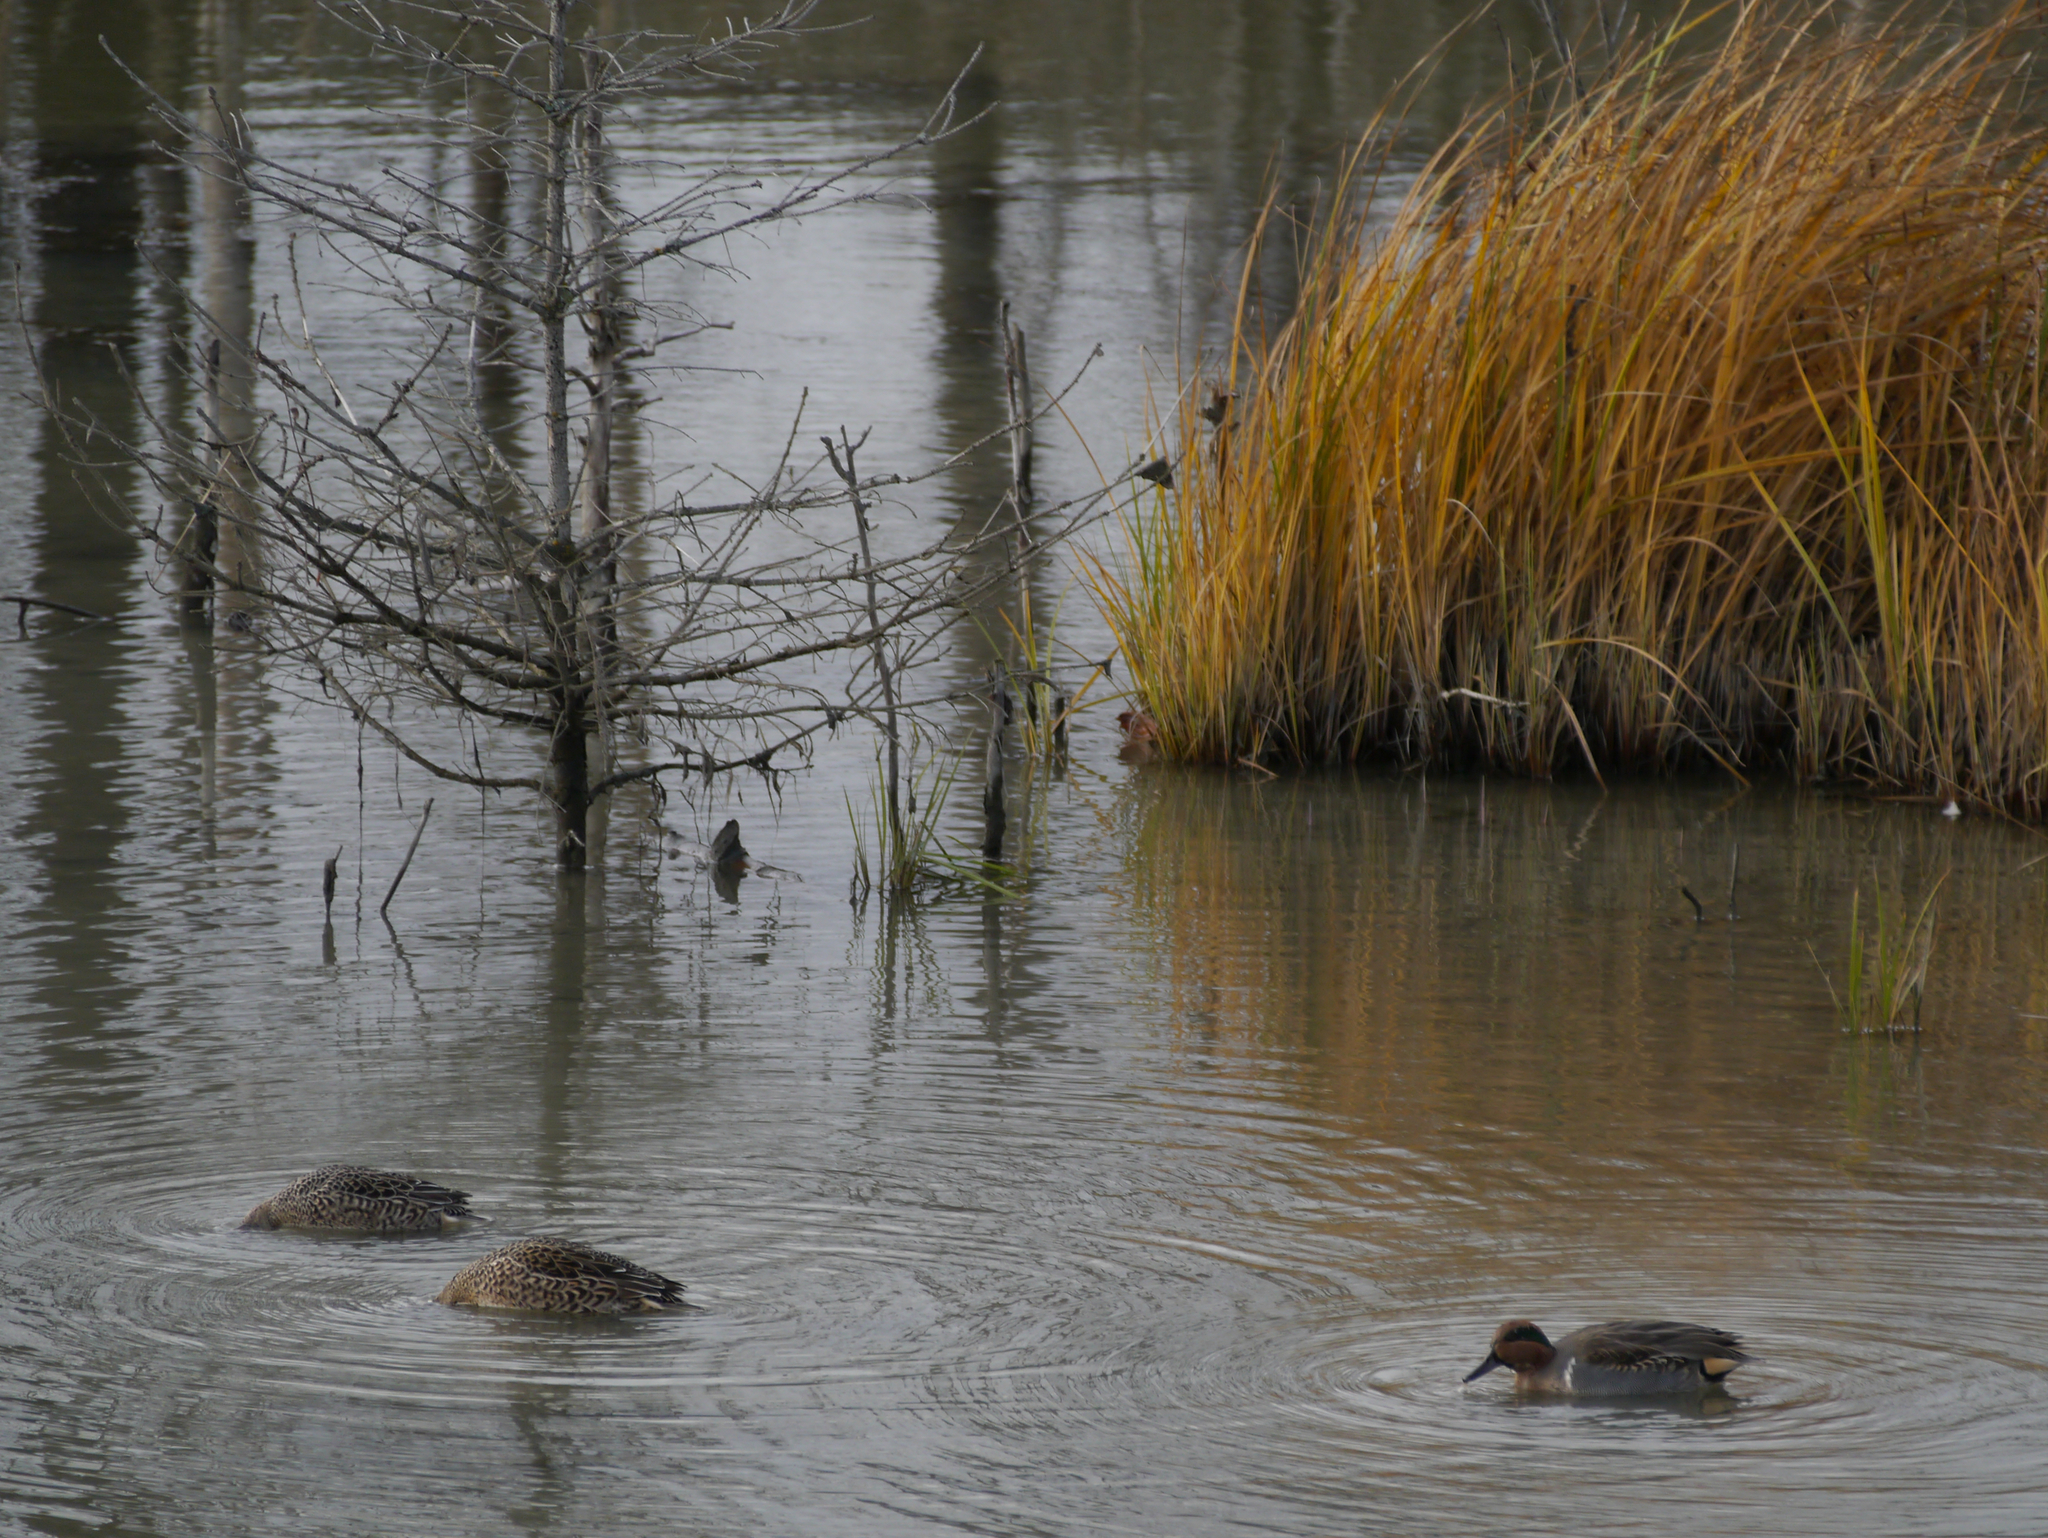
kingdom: Animalia
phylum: Chordata
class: Aves
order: Anseriformes
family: Anatidae
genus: Anas
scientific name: Anas crecca
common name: Eurasian teal
